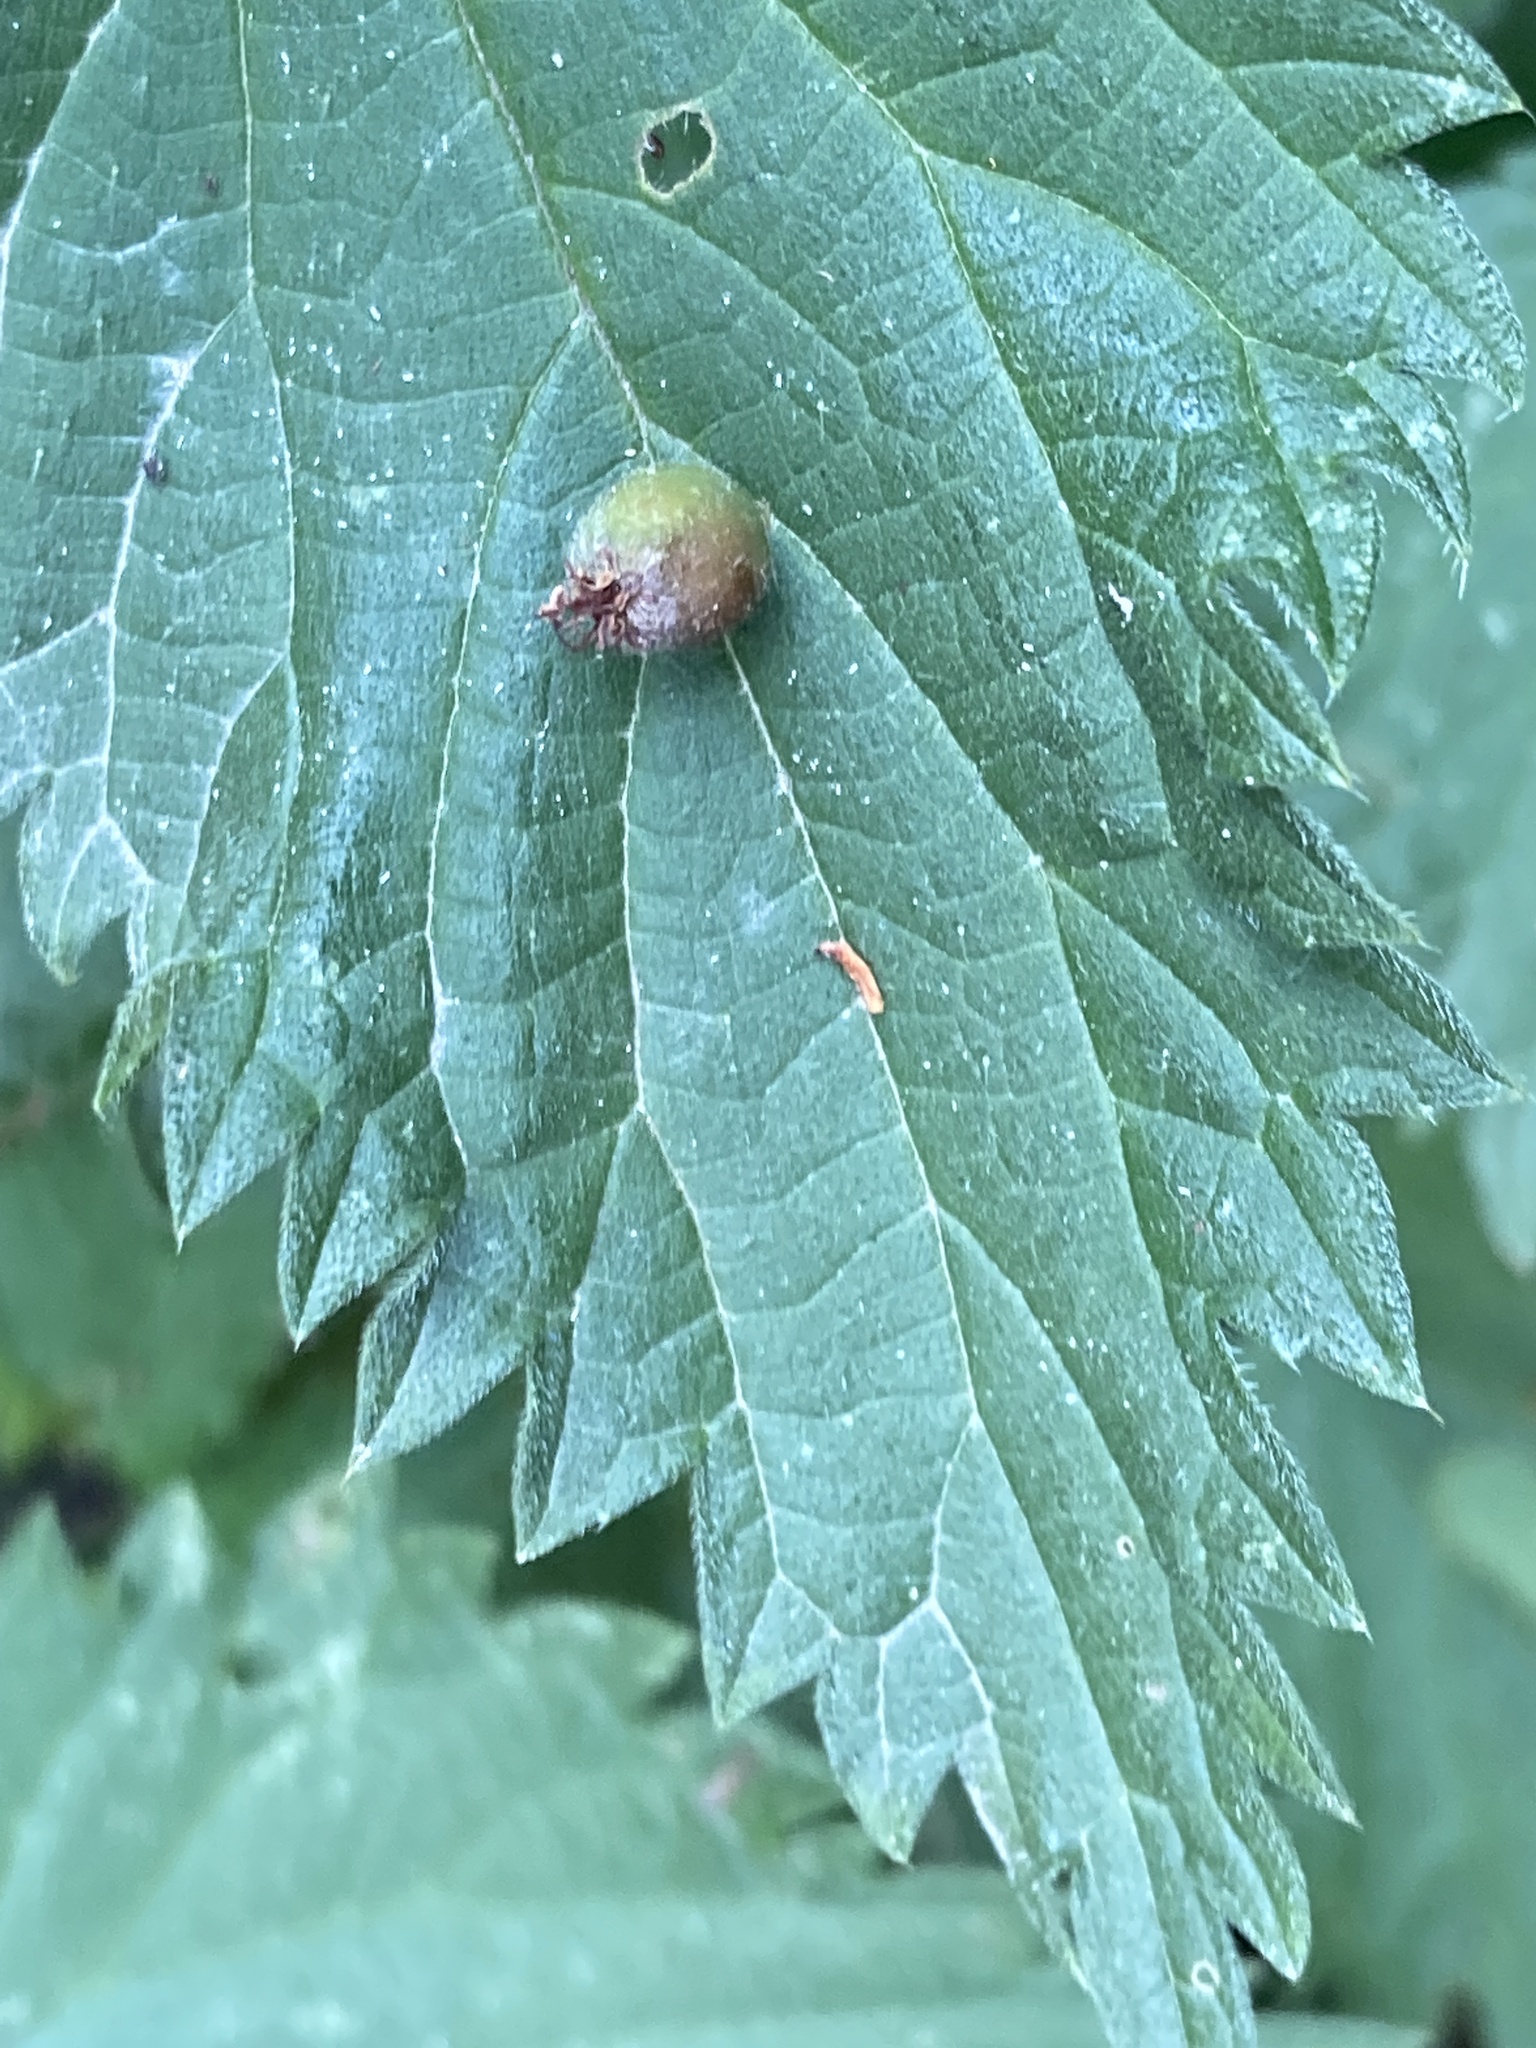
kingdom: Animalia
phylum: Arthropoda
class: Insecta
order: Diptera
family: Cecidomyiidae
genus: Dasineura
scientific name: Dasineura urticae
